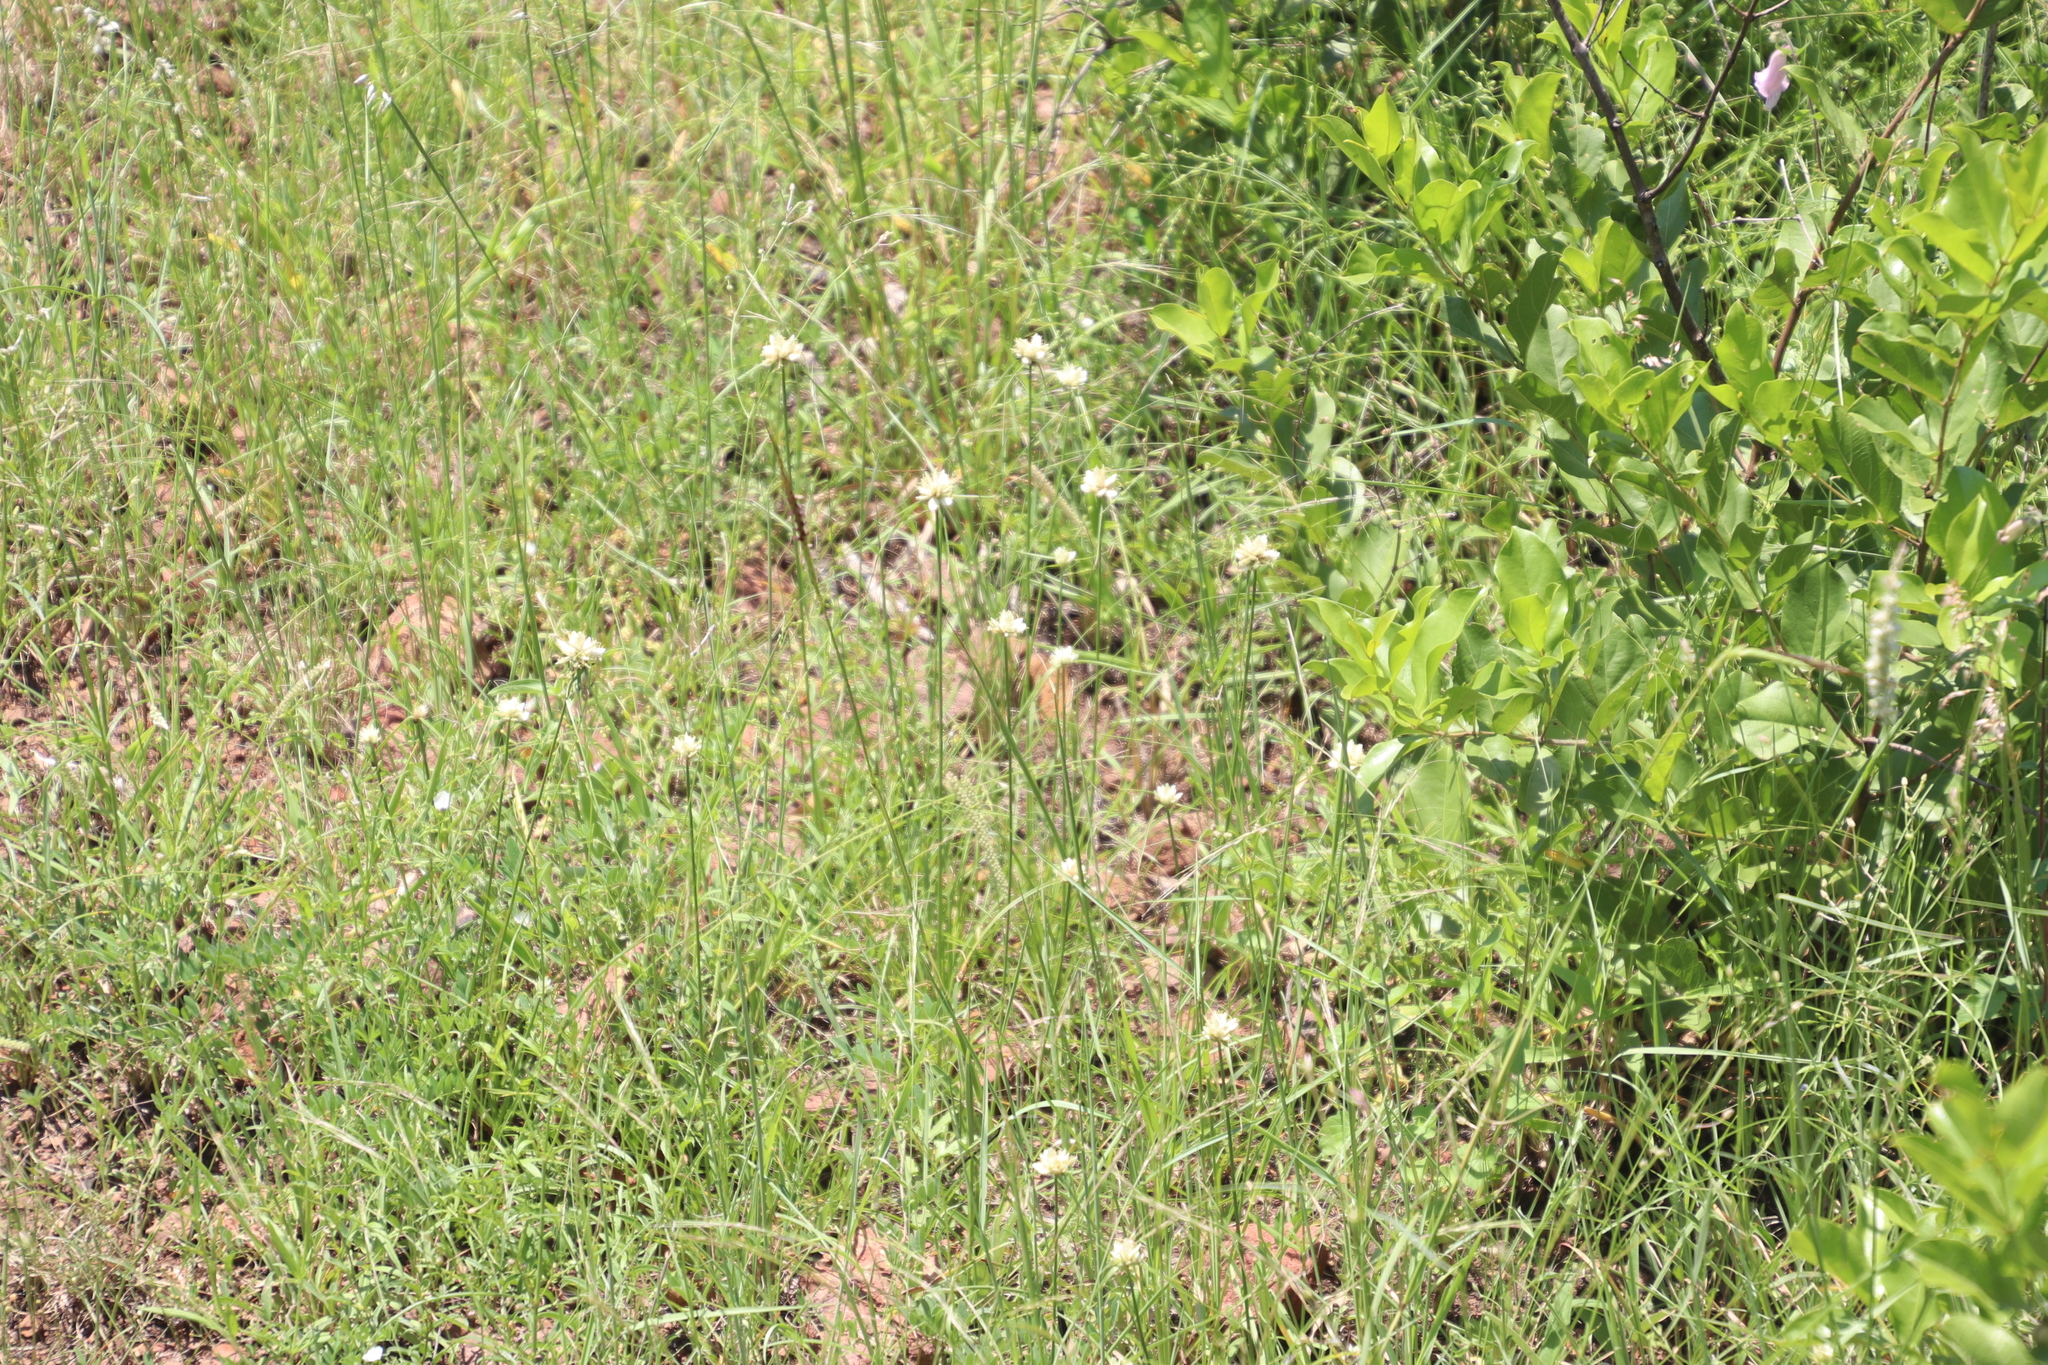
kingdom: Plantae
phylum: Tracheophyta
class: Liliopsida
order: Poales
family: Cyperaceae
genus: Cyperus
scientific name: Cyperus niveus
